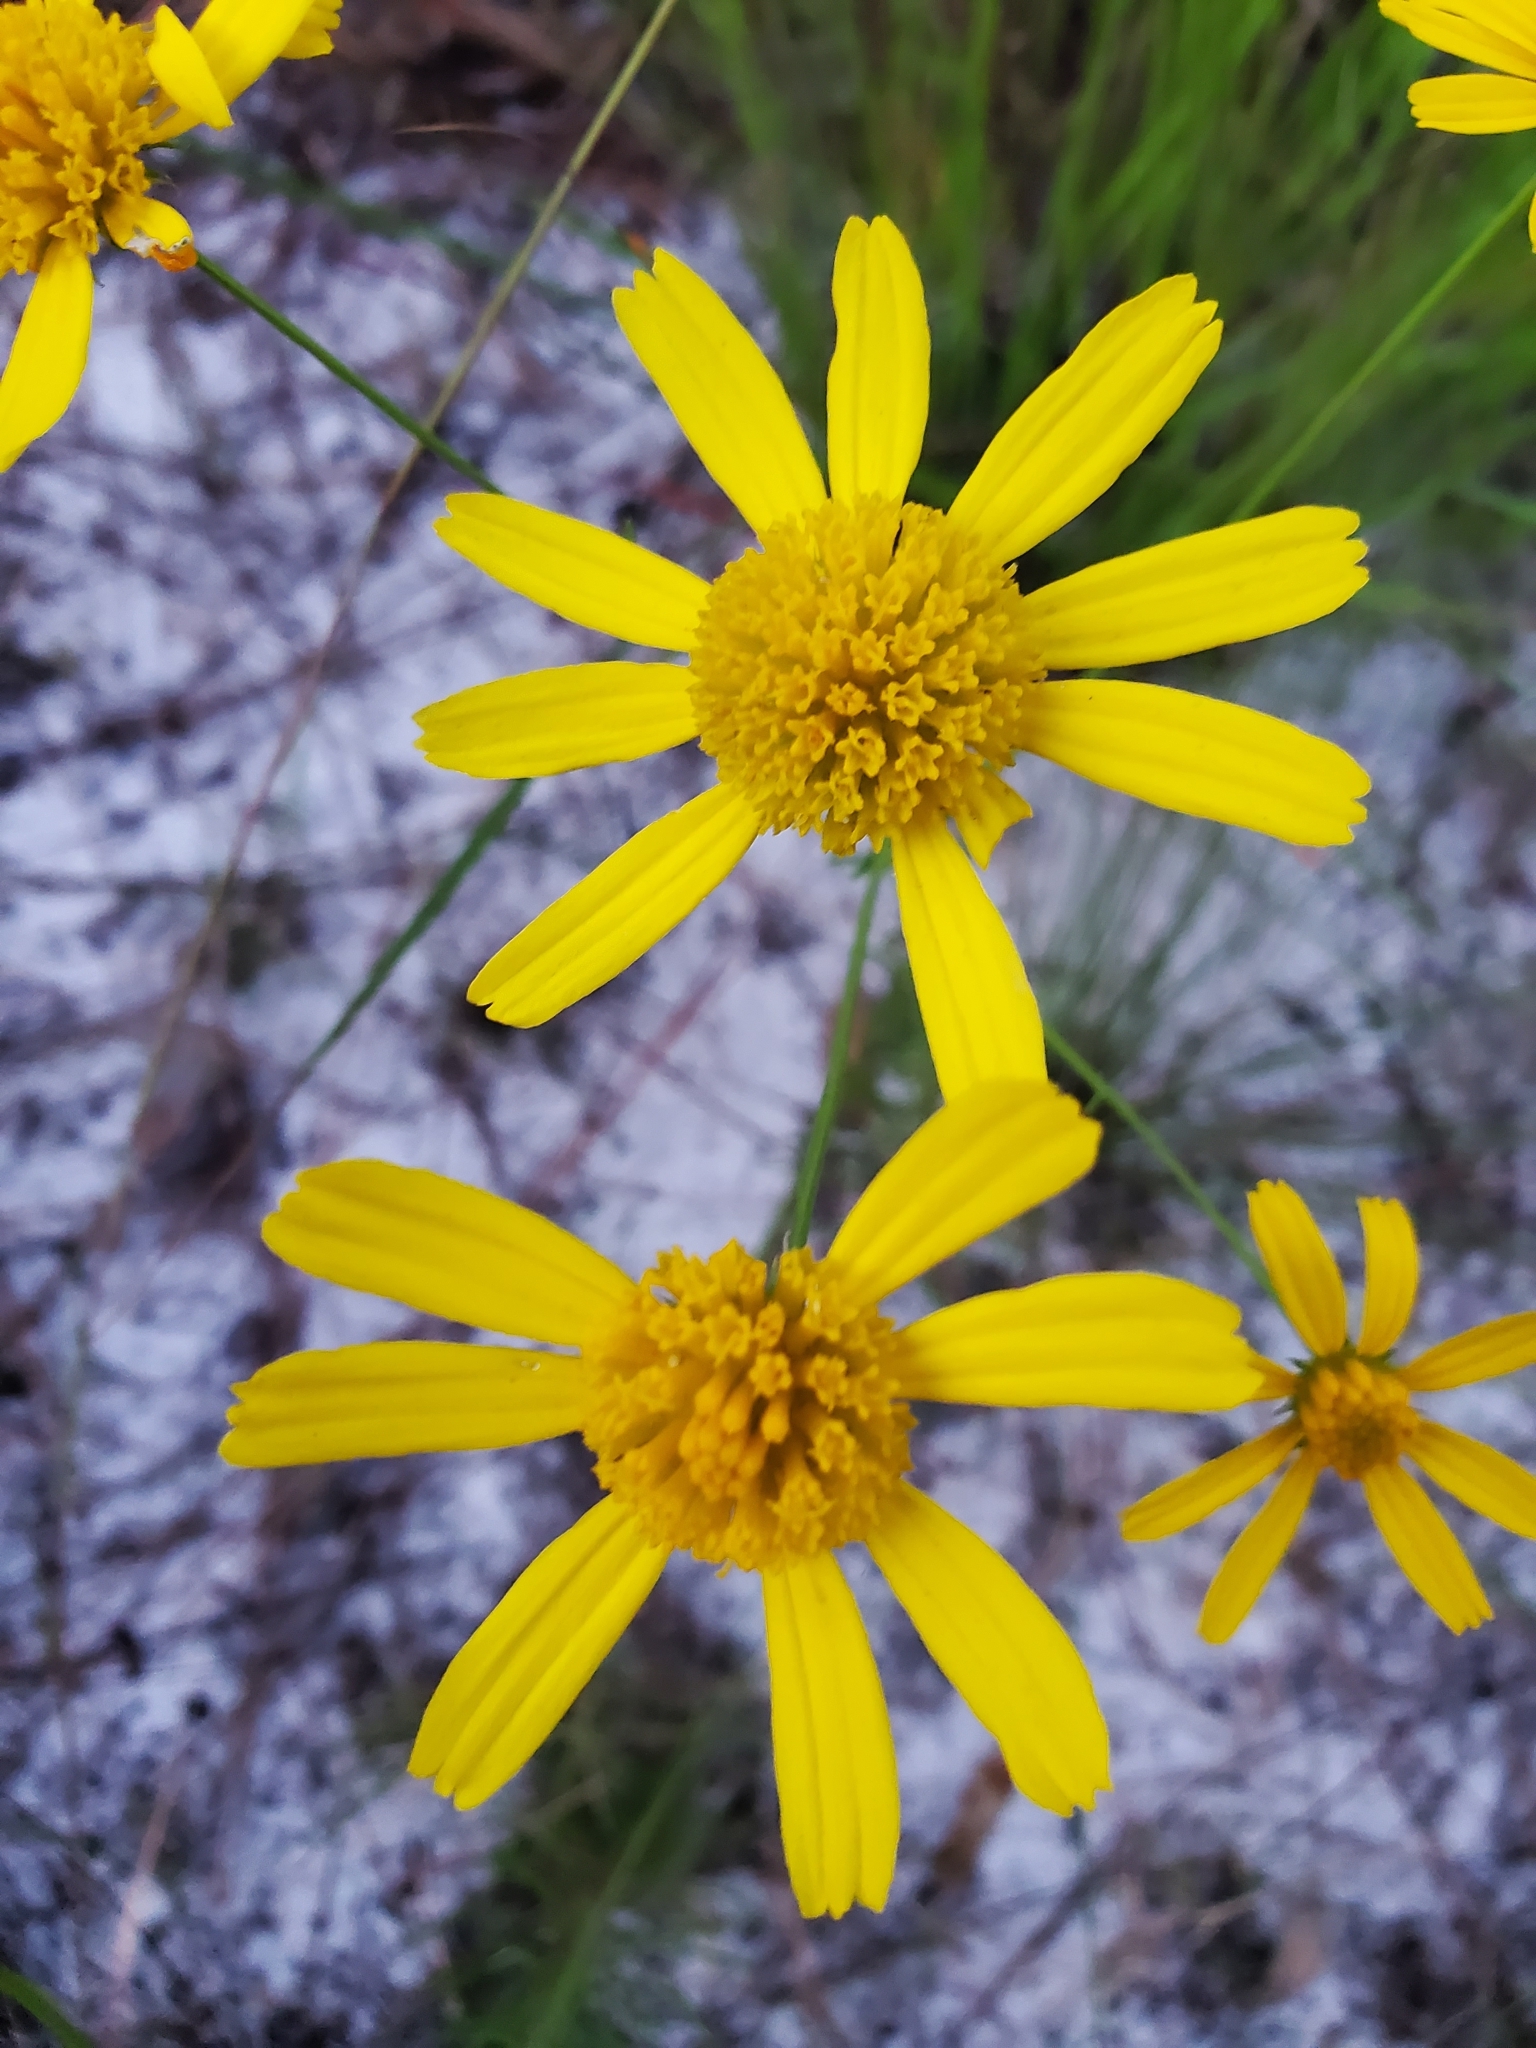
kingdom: Plantae
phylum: Tracheophyta
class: Magnoliopsida
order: Asterales
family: Asteraceae
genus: Balduina
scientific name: Balduina angustifolia
